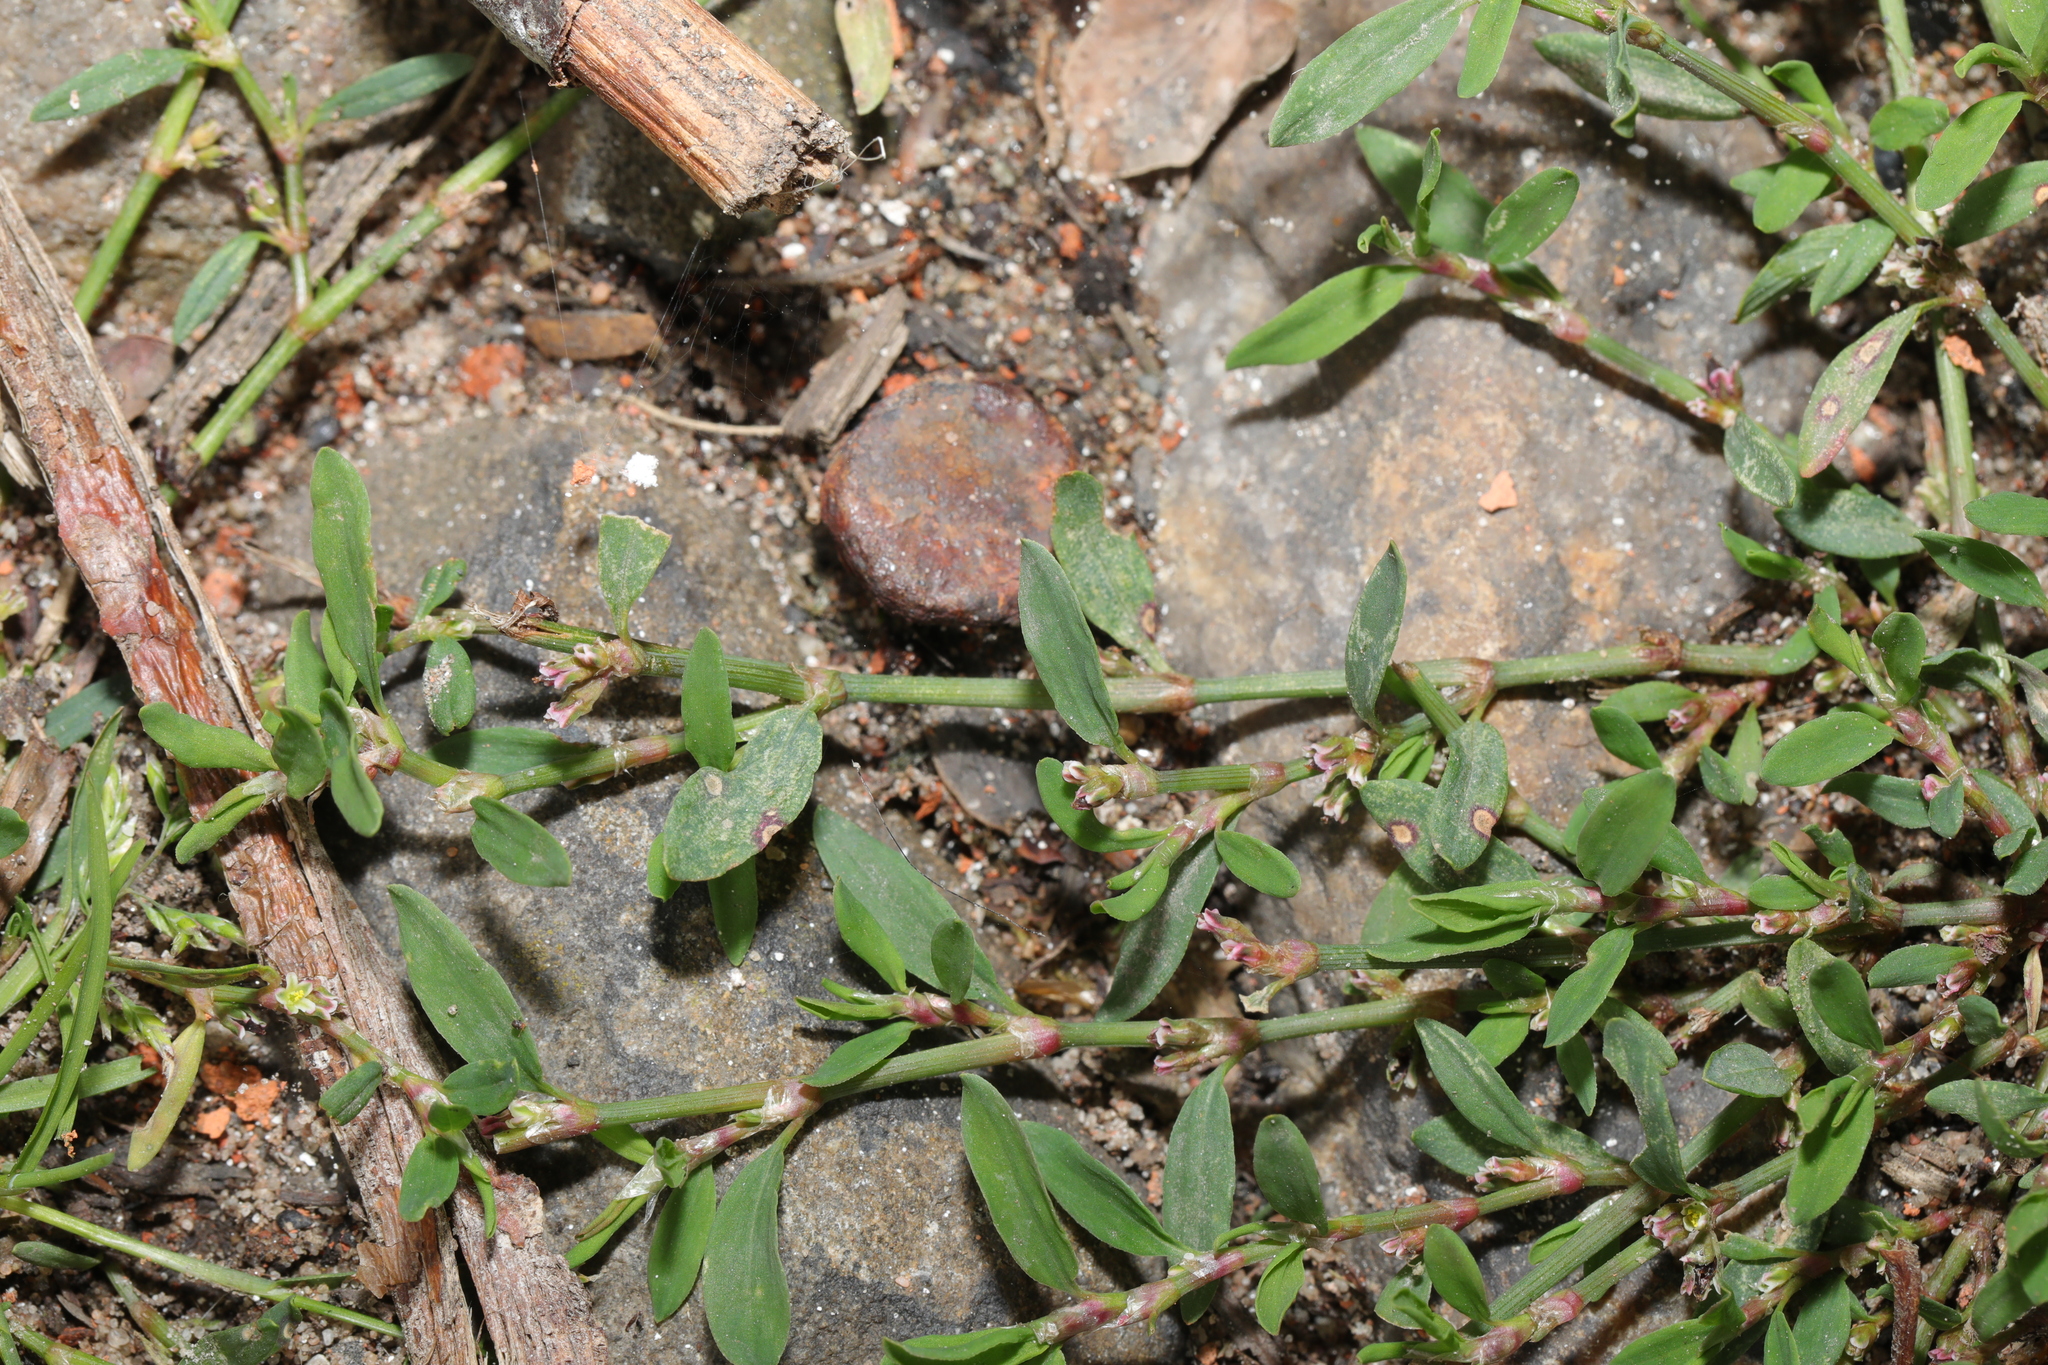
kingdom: Plantae
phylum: Tracheophyta
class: Magnoliopsida
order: Caryophyllales
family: Polygonaceae
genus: Polygonum
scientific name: Polygonum aviculare
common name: Prostrate knotweed
